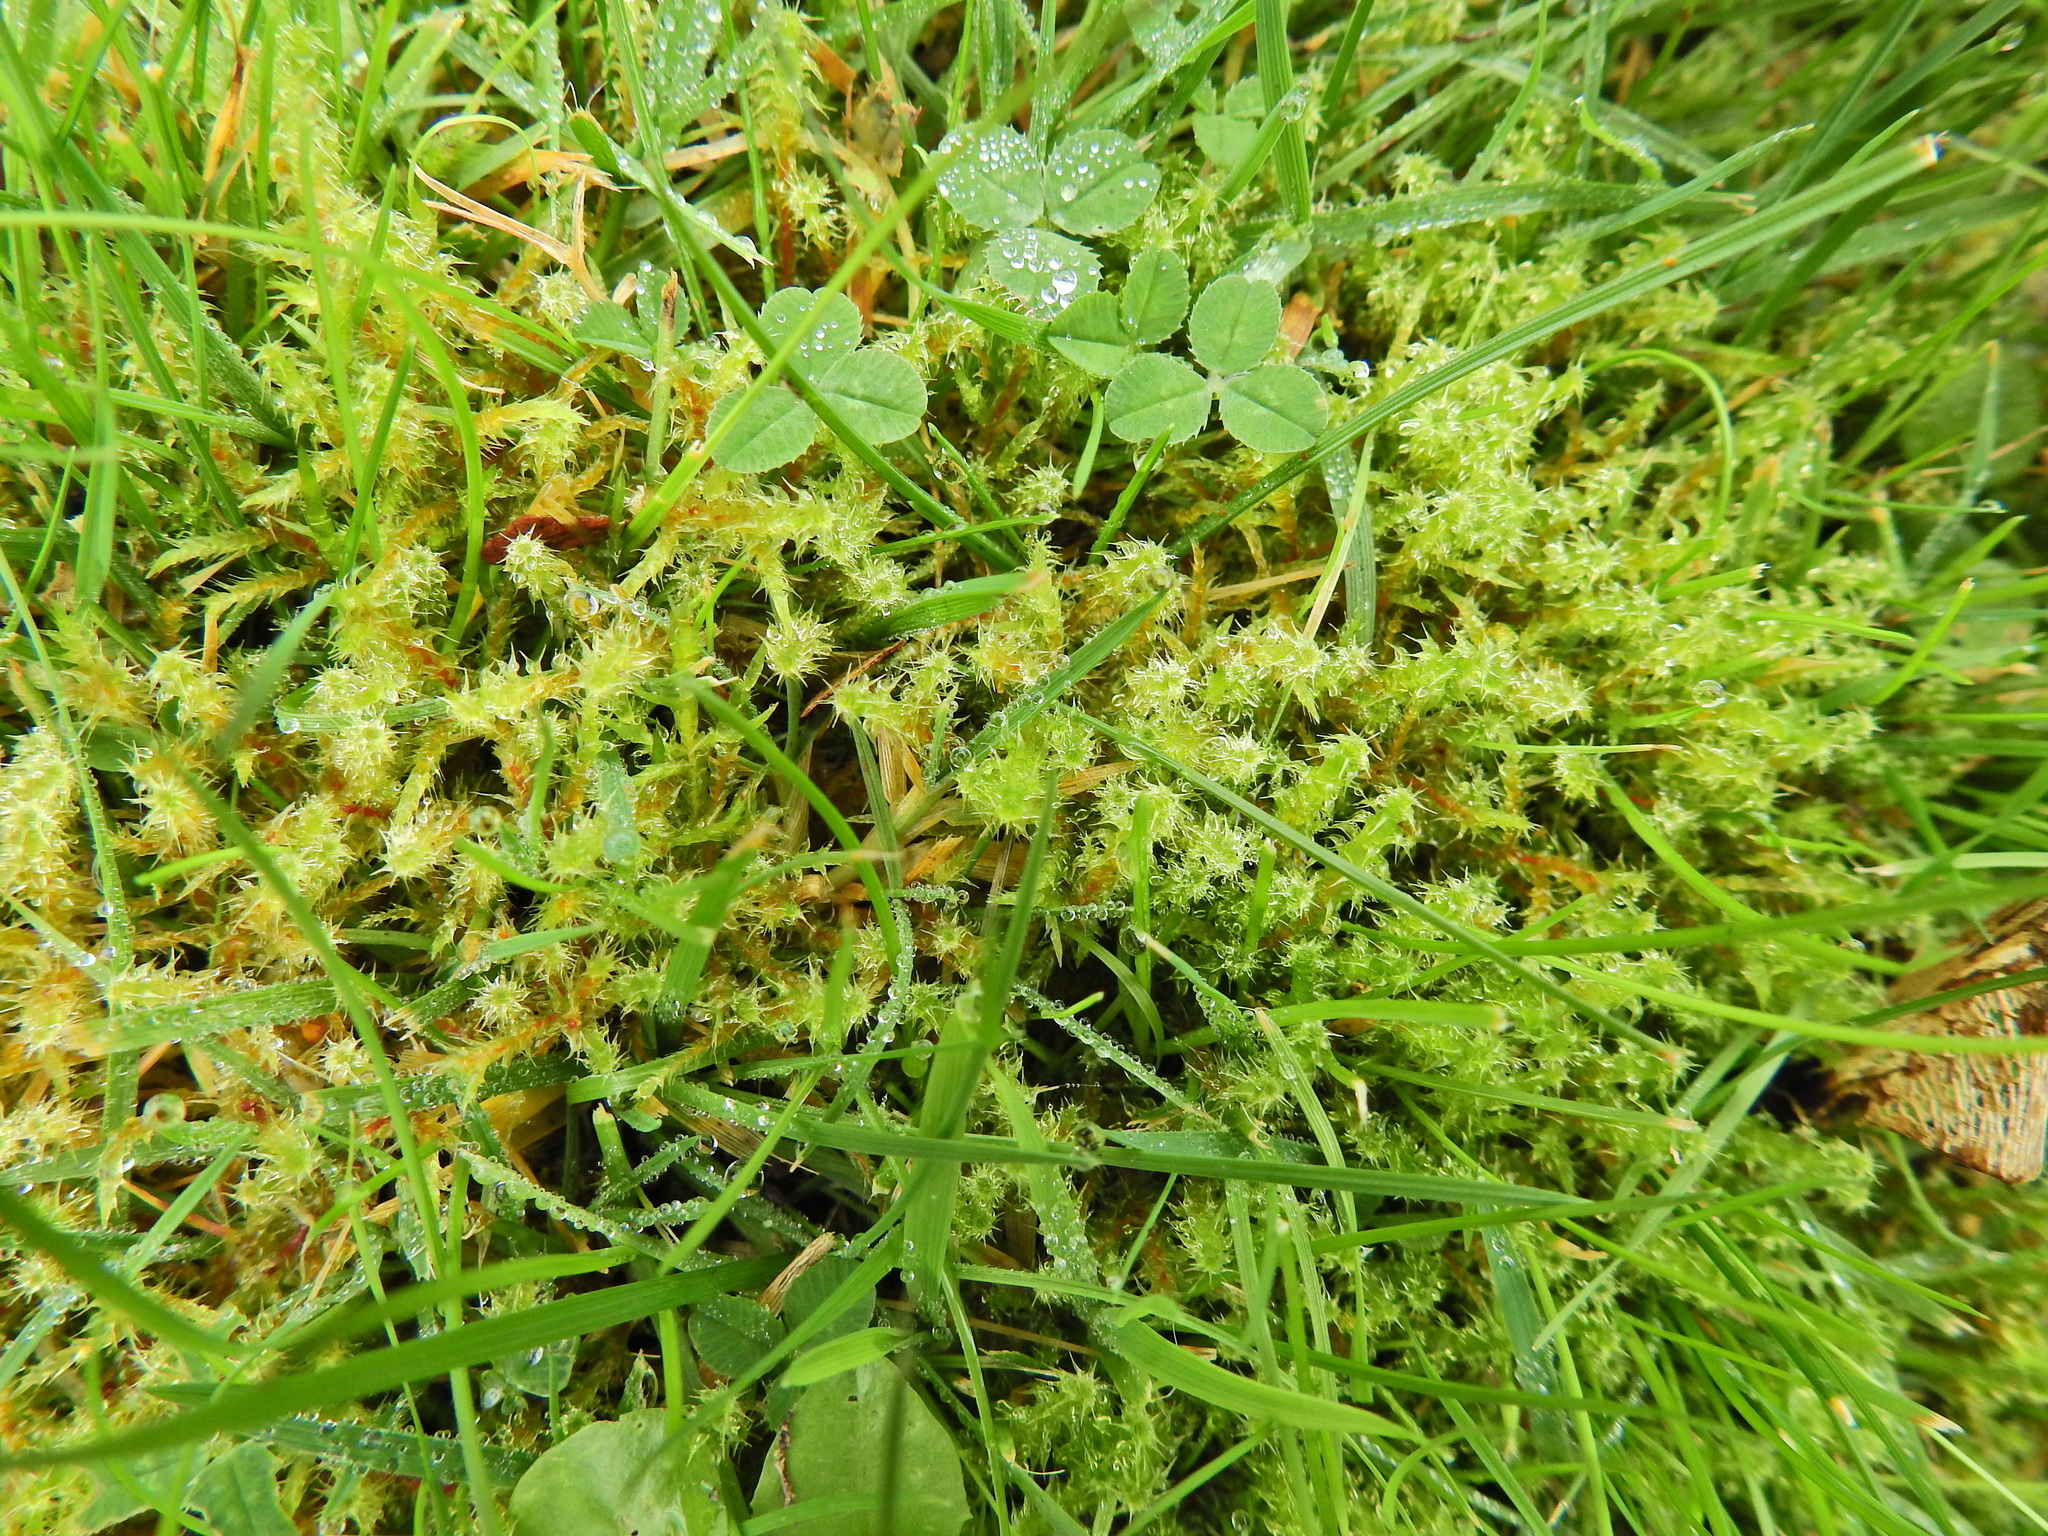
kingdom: Plantae
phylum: Bryophyta
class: Bryopsida
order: Hypnales
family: Hylocomiaceae
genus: Rhytidiadelphus
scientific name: Rhytidiadelphus squarrosus
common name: Springy turf-moss
